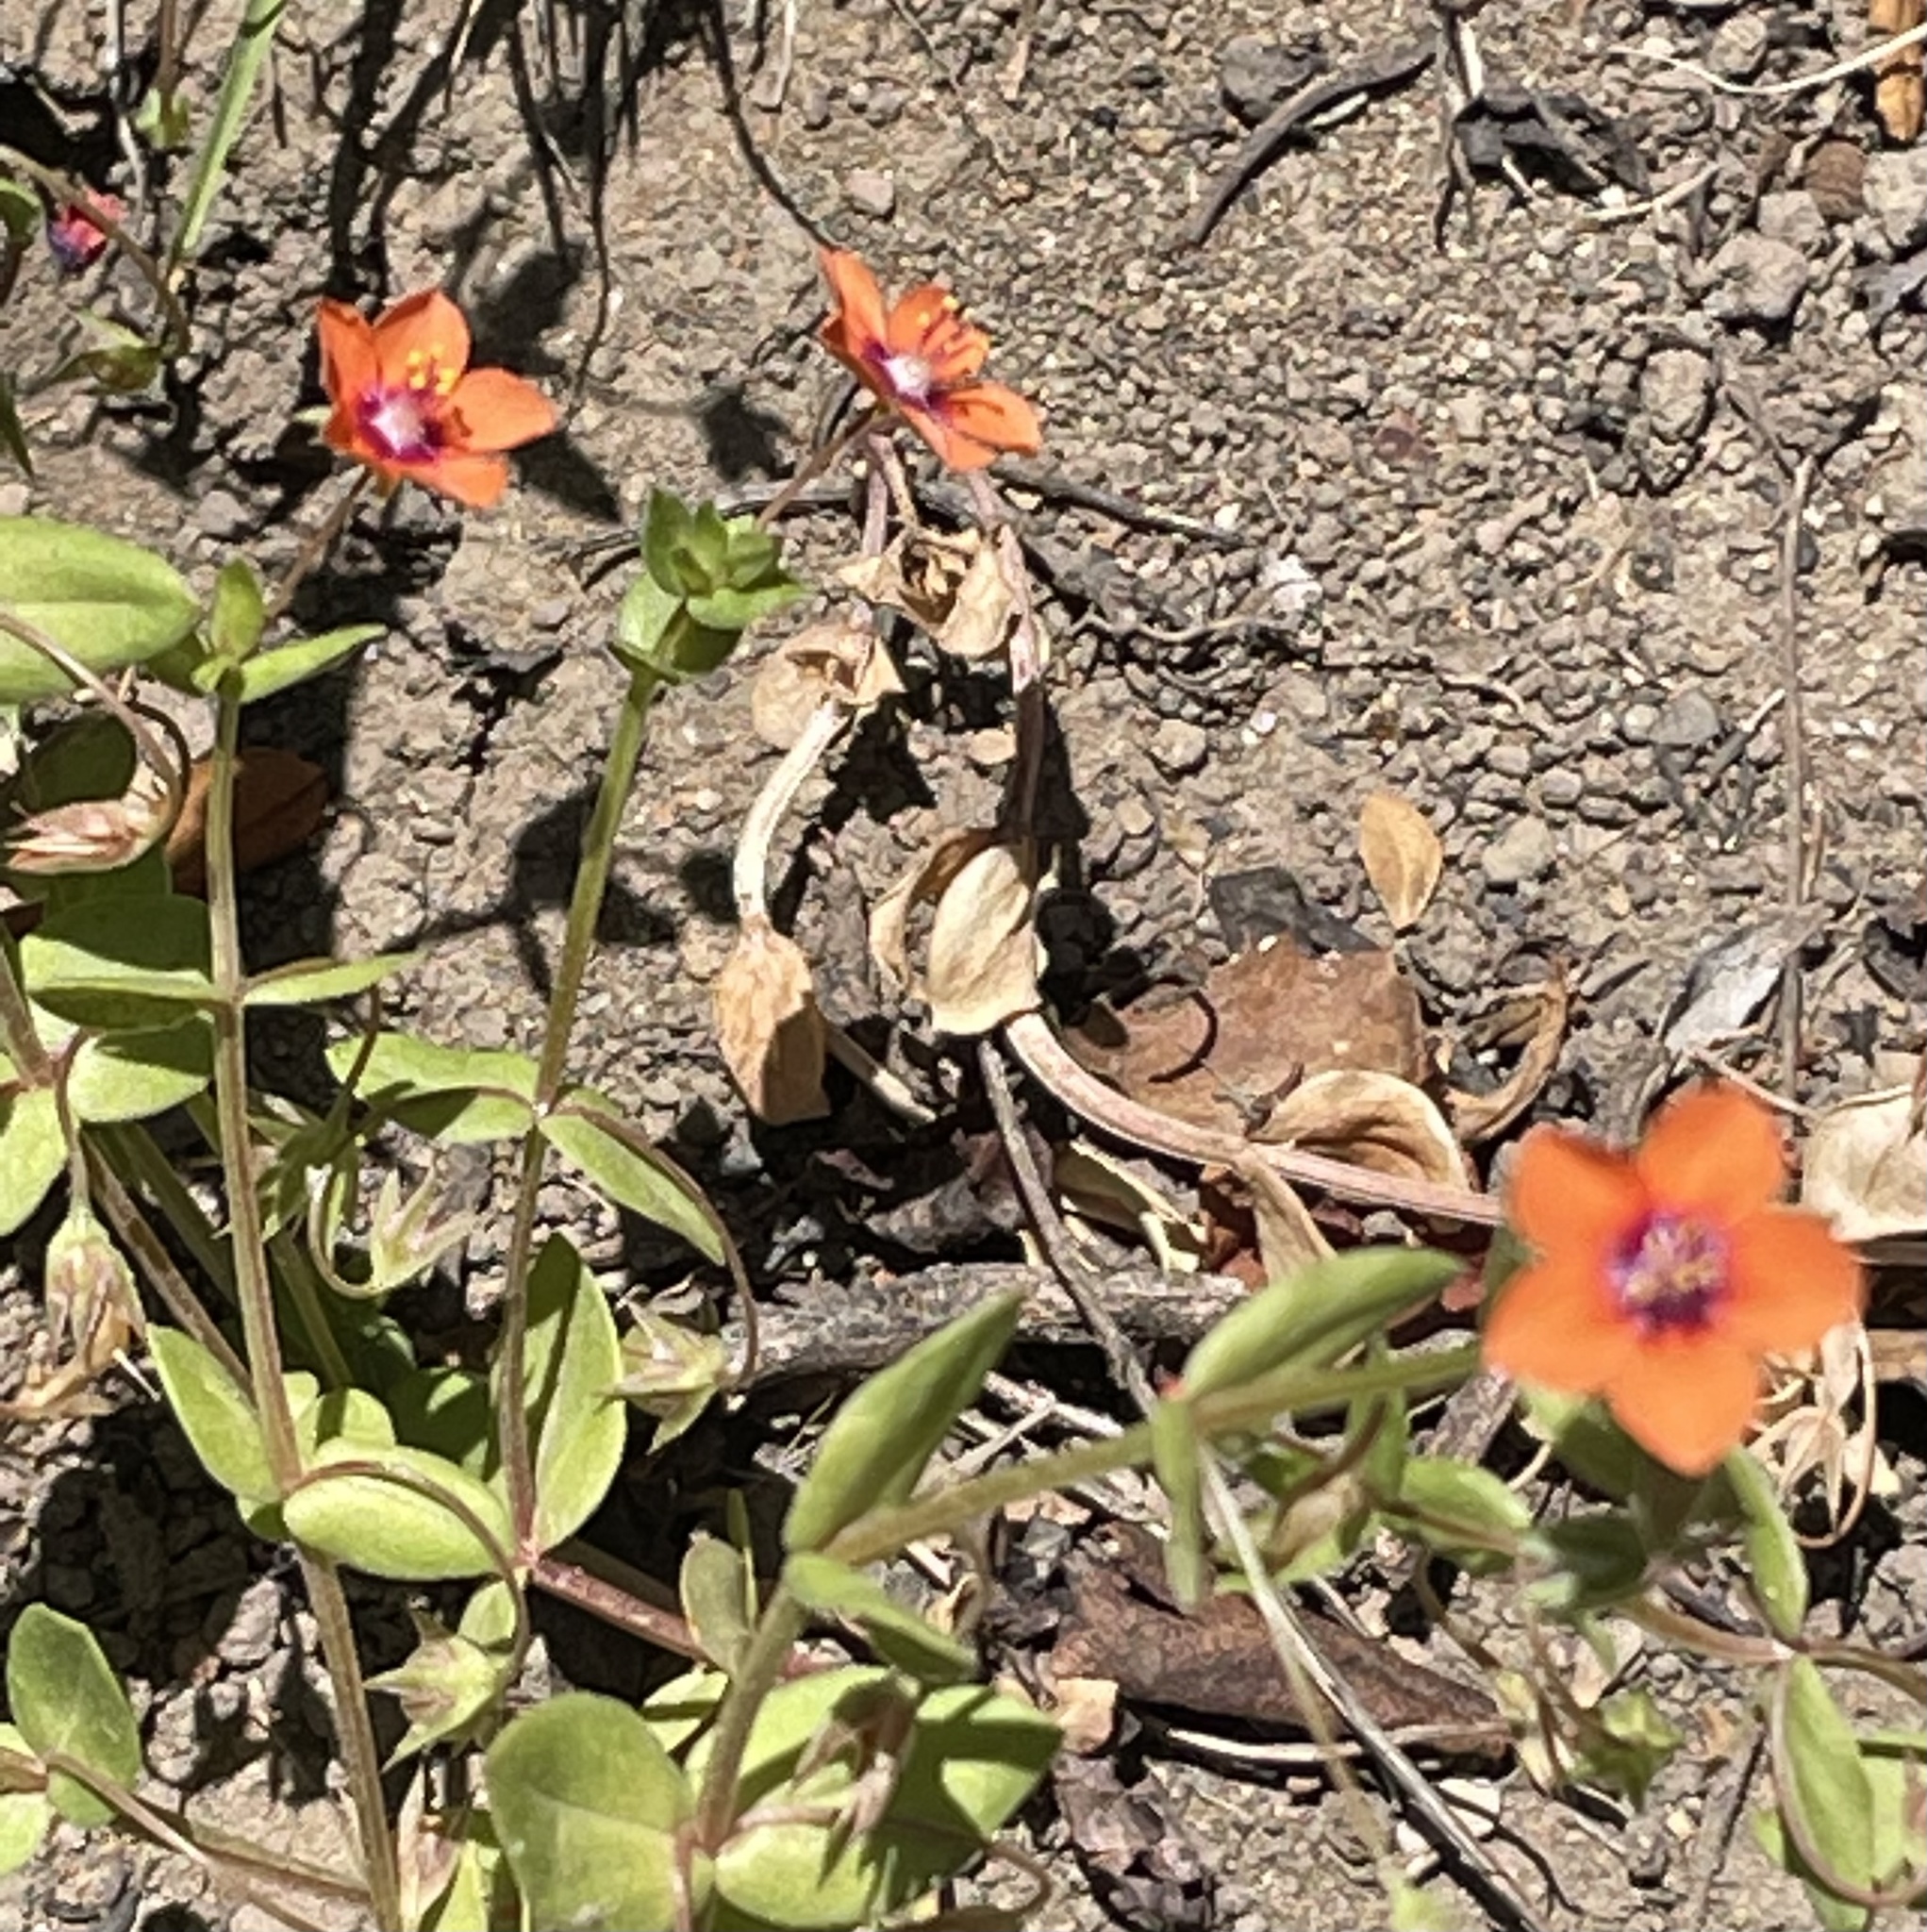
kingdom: Plantae
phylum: Tracheophyta
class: Magnoliopsida
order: Ericales
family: Primulaceae
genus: Lysimachia
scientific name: Lysimachia arvensis
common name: Scarlet pimpernel
